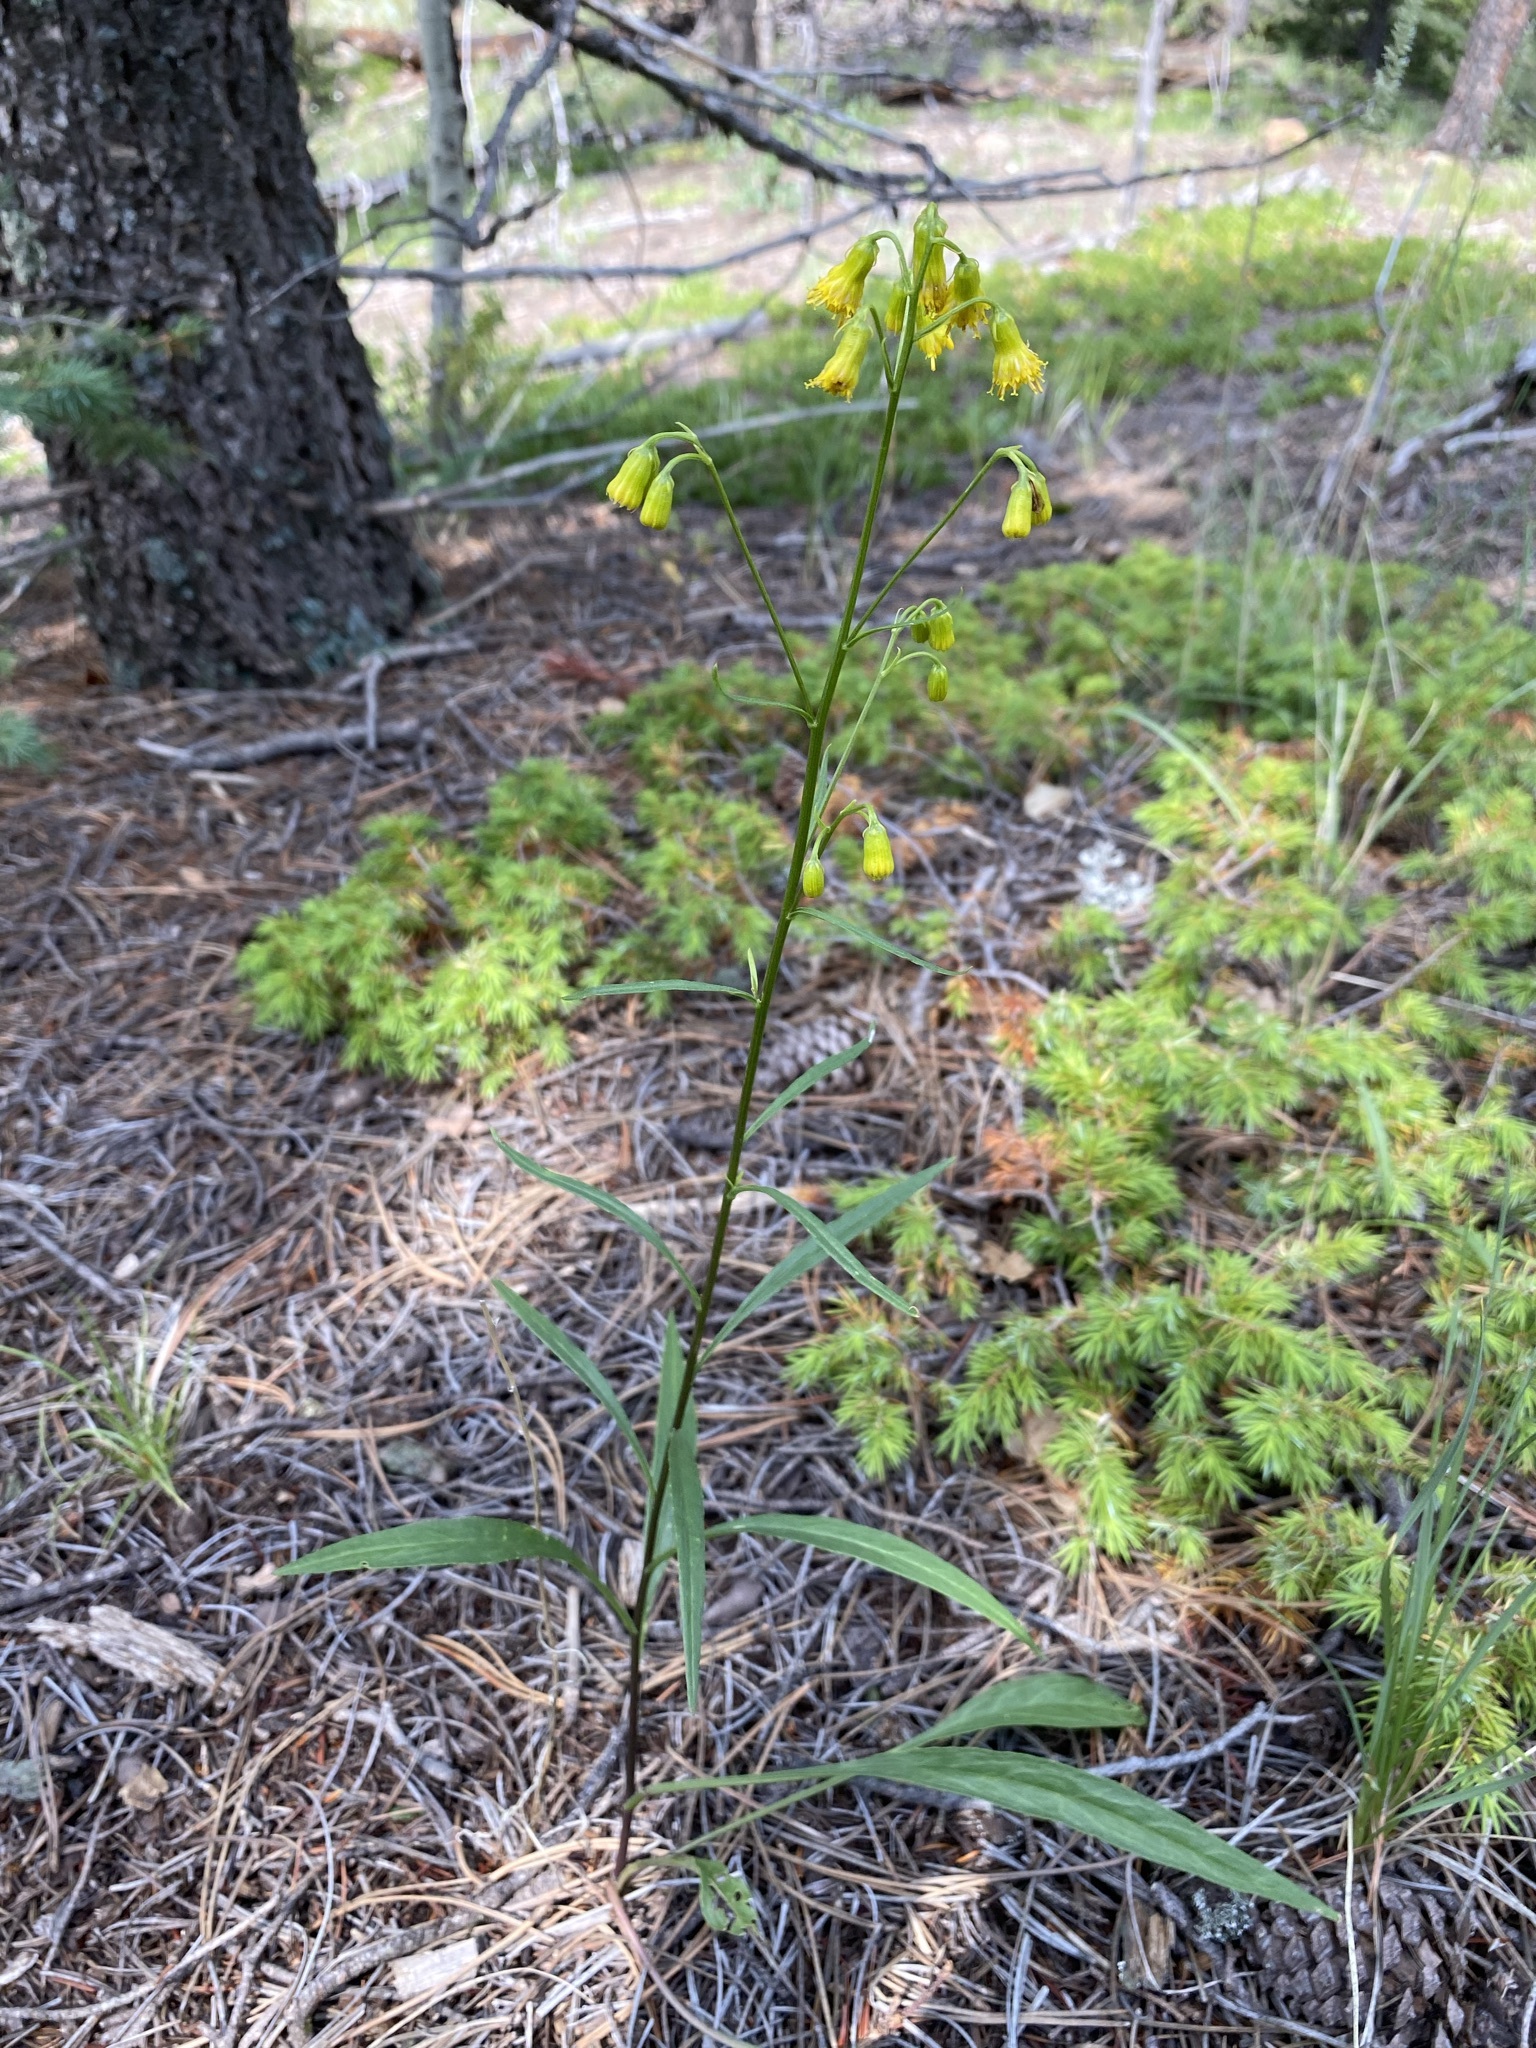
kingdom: Plantae
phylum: Tracheophyta
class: Magnoliopsida
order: Asterales
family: Asteraceae
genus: Senecio
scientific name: Senecio pudicus
